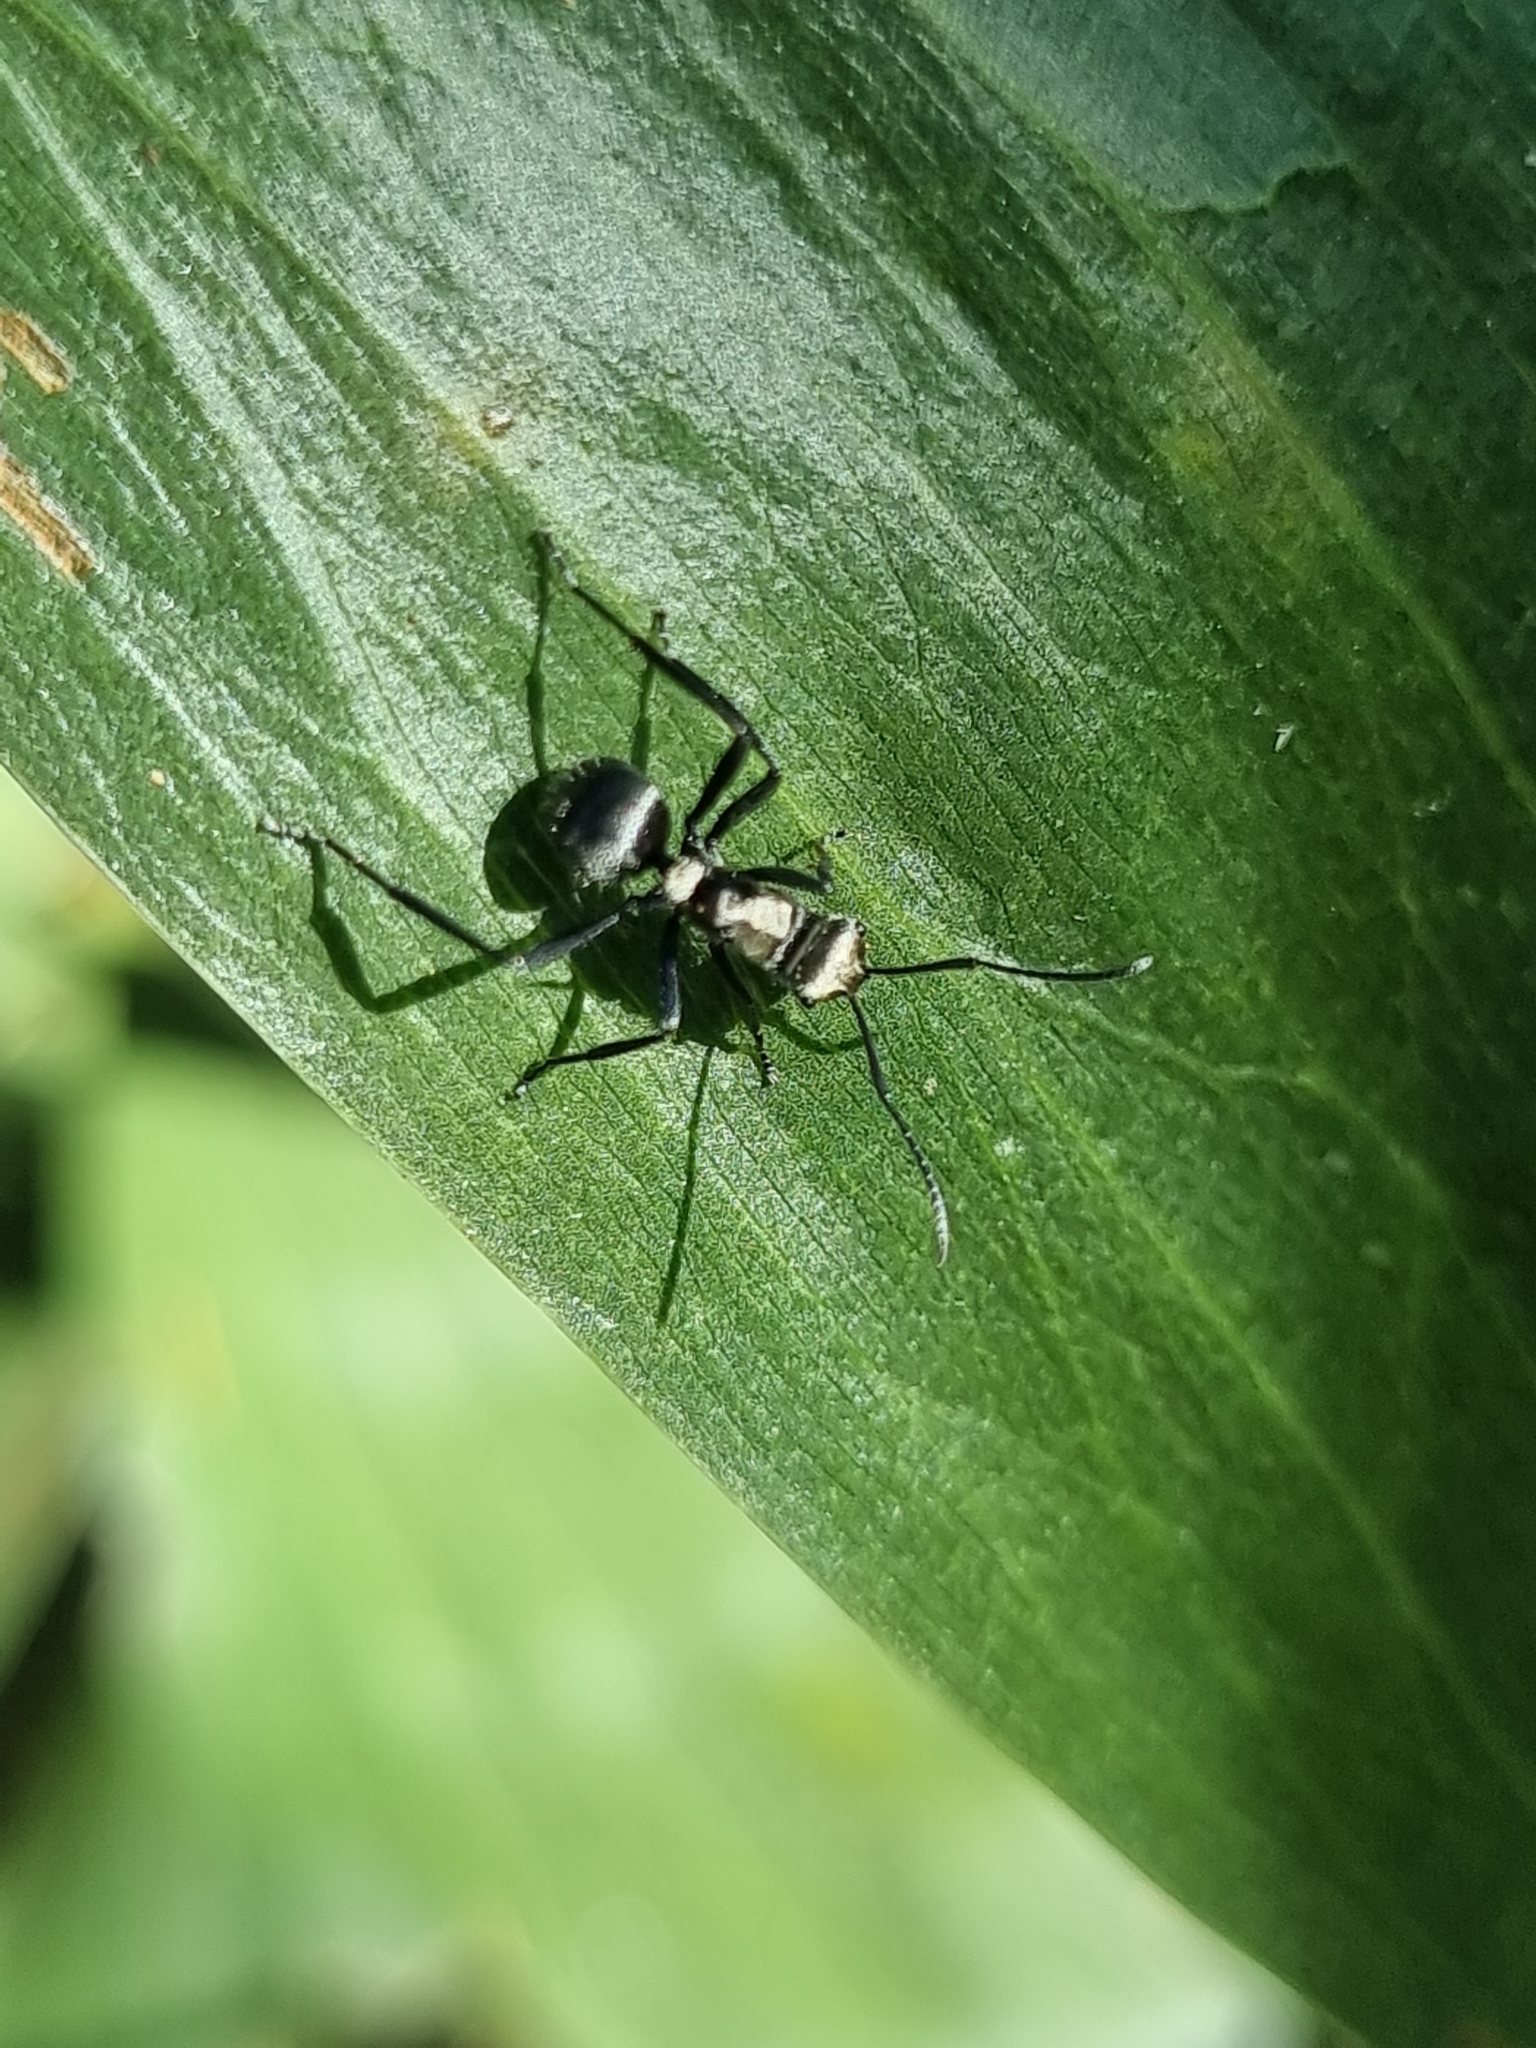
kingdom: Animalia
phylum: Arthropoda
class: Insecta
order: Hymenoptera
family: Formicidae
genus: Polyrhachis
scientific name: Polyrhachis daemeli
